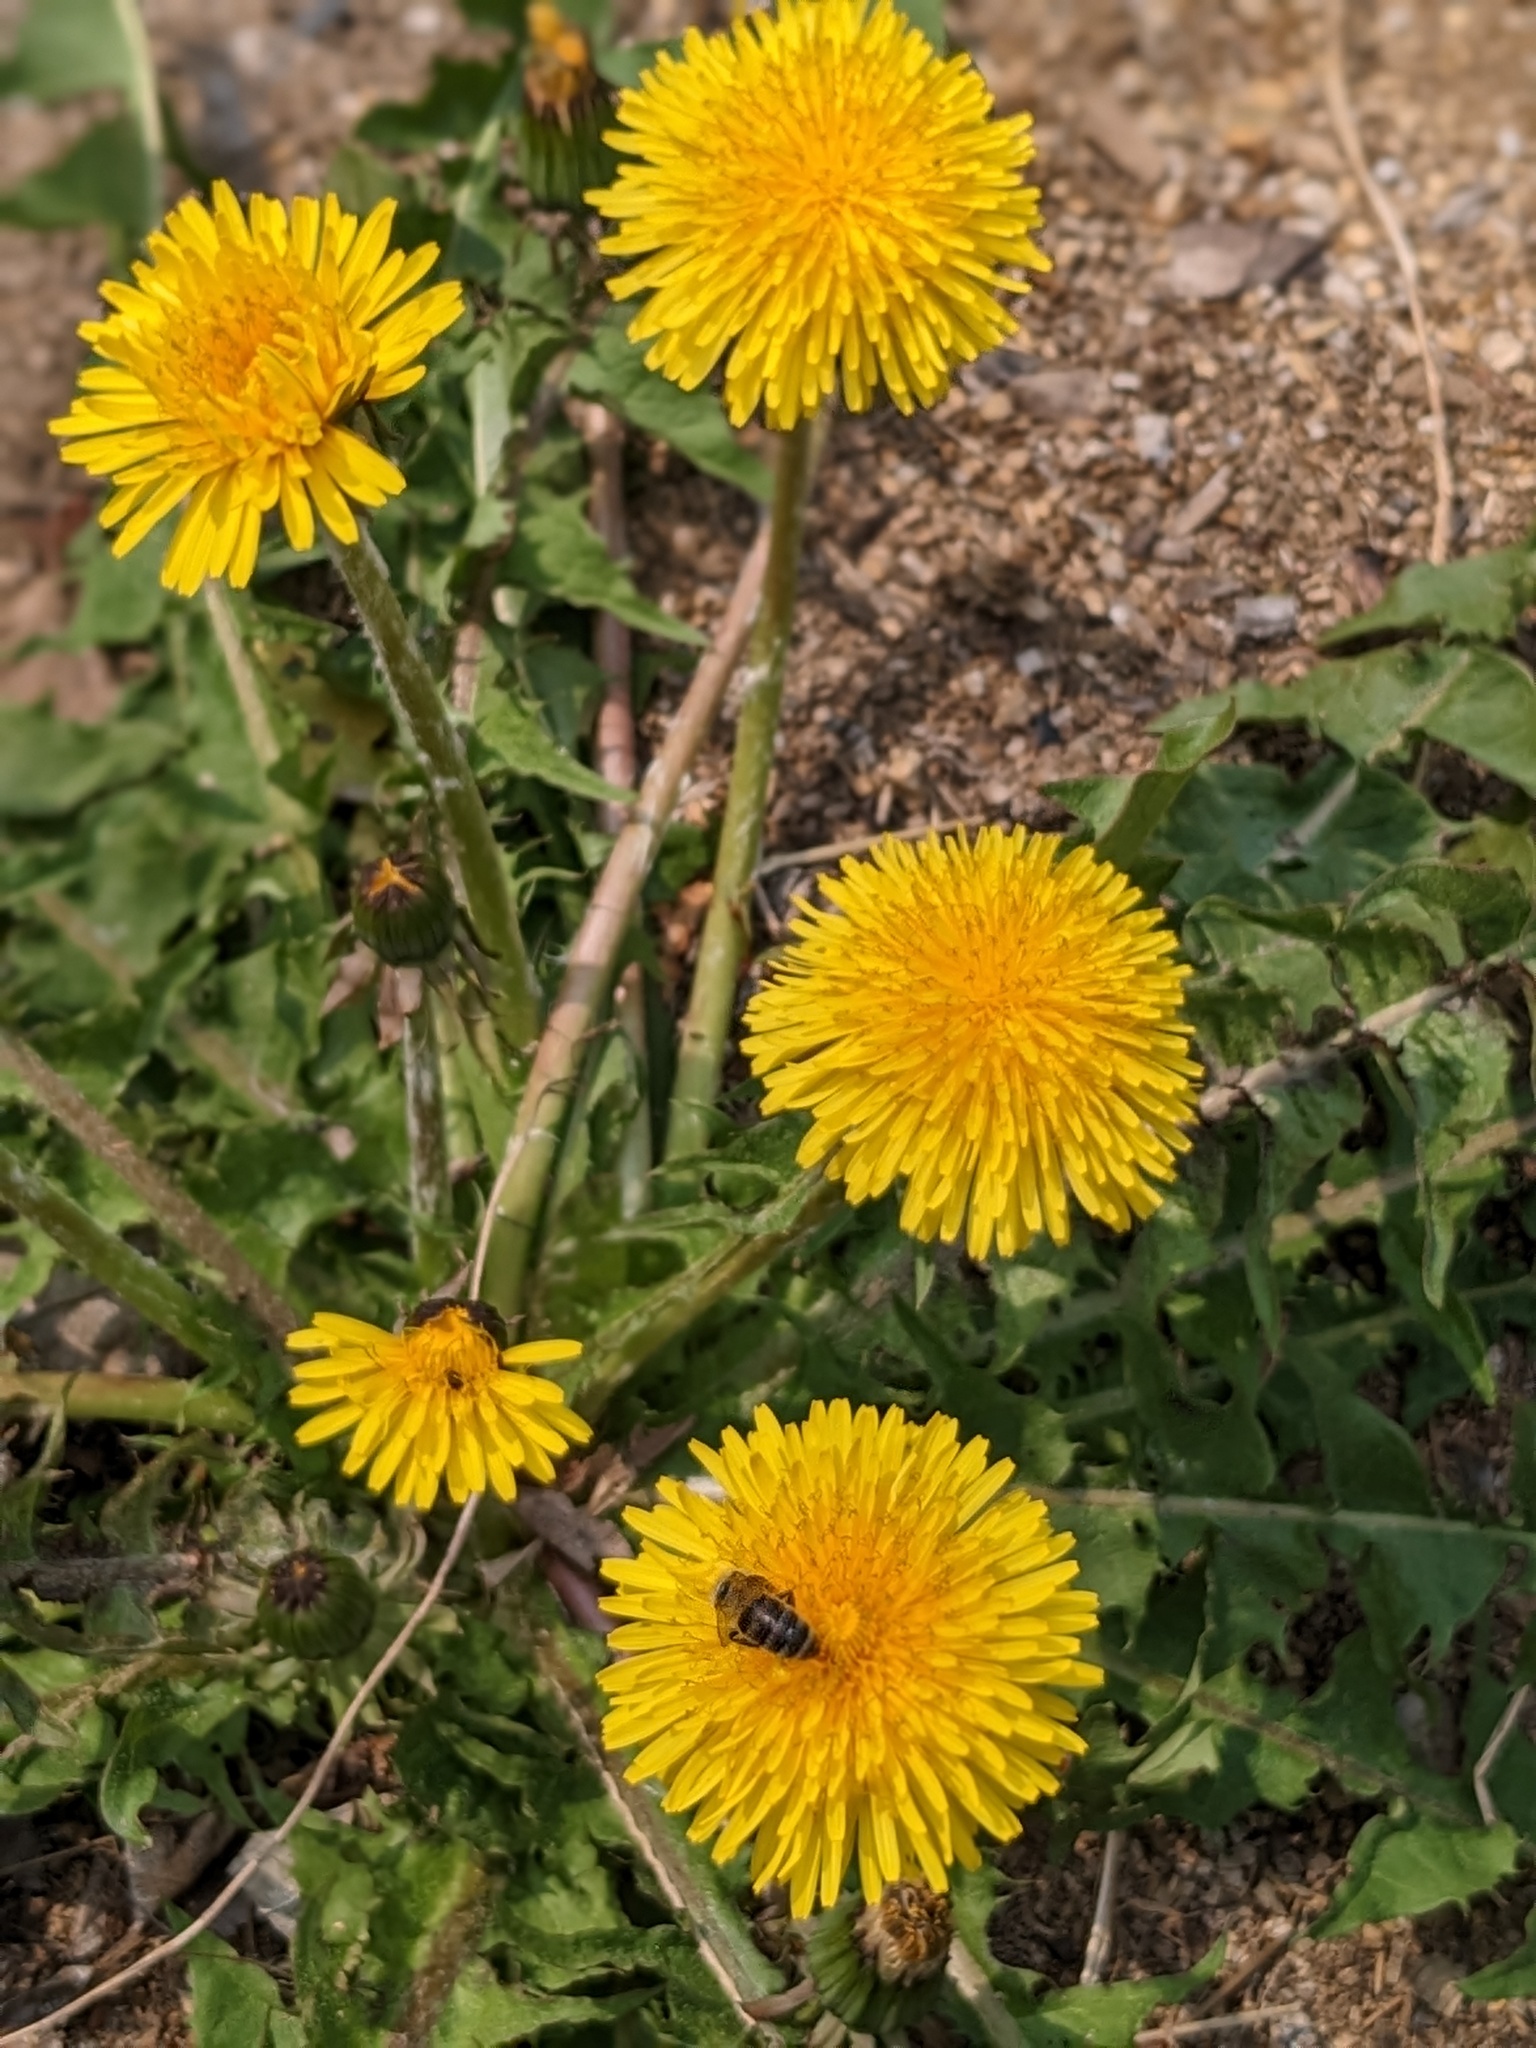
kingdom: Plantae
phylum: Tracheophyta
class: Magnoliopsida
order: Asterales
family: Asteraceae
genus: Taraxacum
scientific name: Taraxacum officinale
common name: Common dandelion
